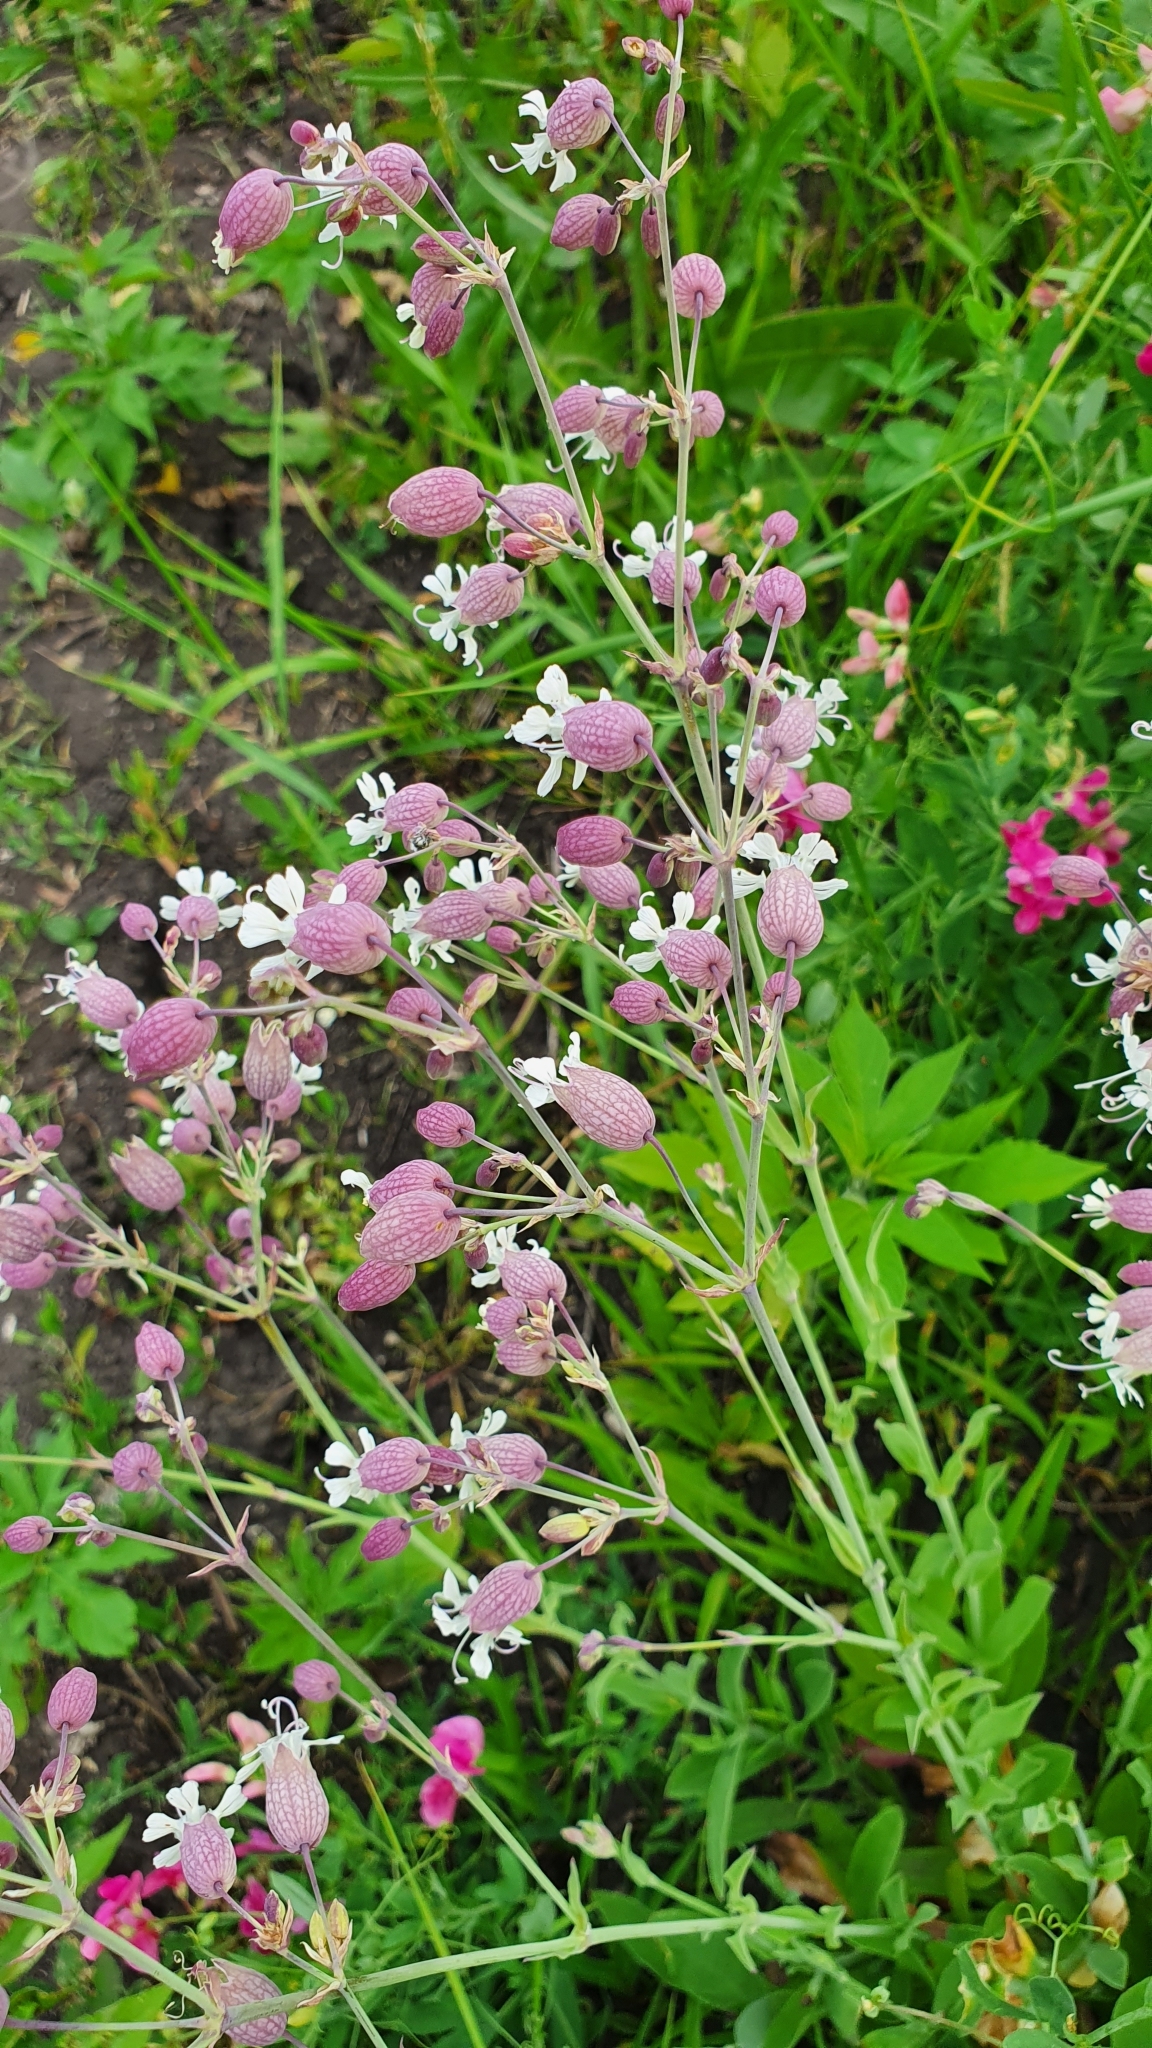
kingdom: Plantae
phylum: Tracheophyta
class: Magnoliopsida
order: Caryophyllales
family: Caryophyllaceae
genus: Silene
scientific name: Silene vulgaris
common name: Bladder campion
